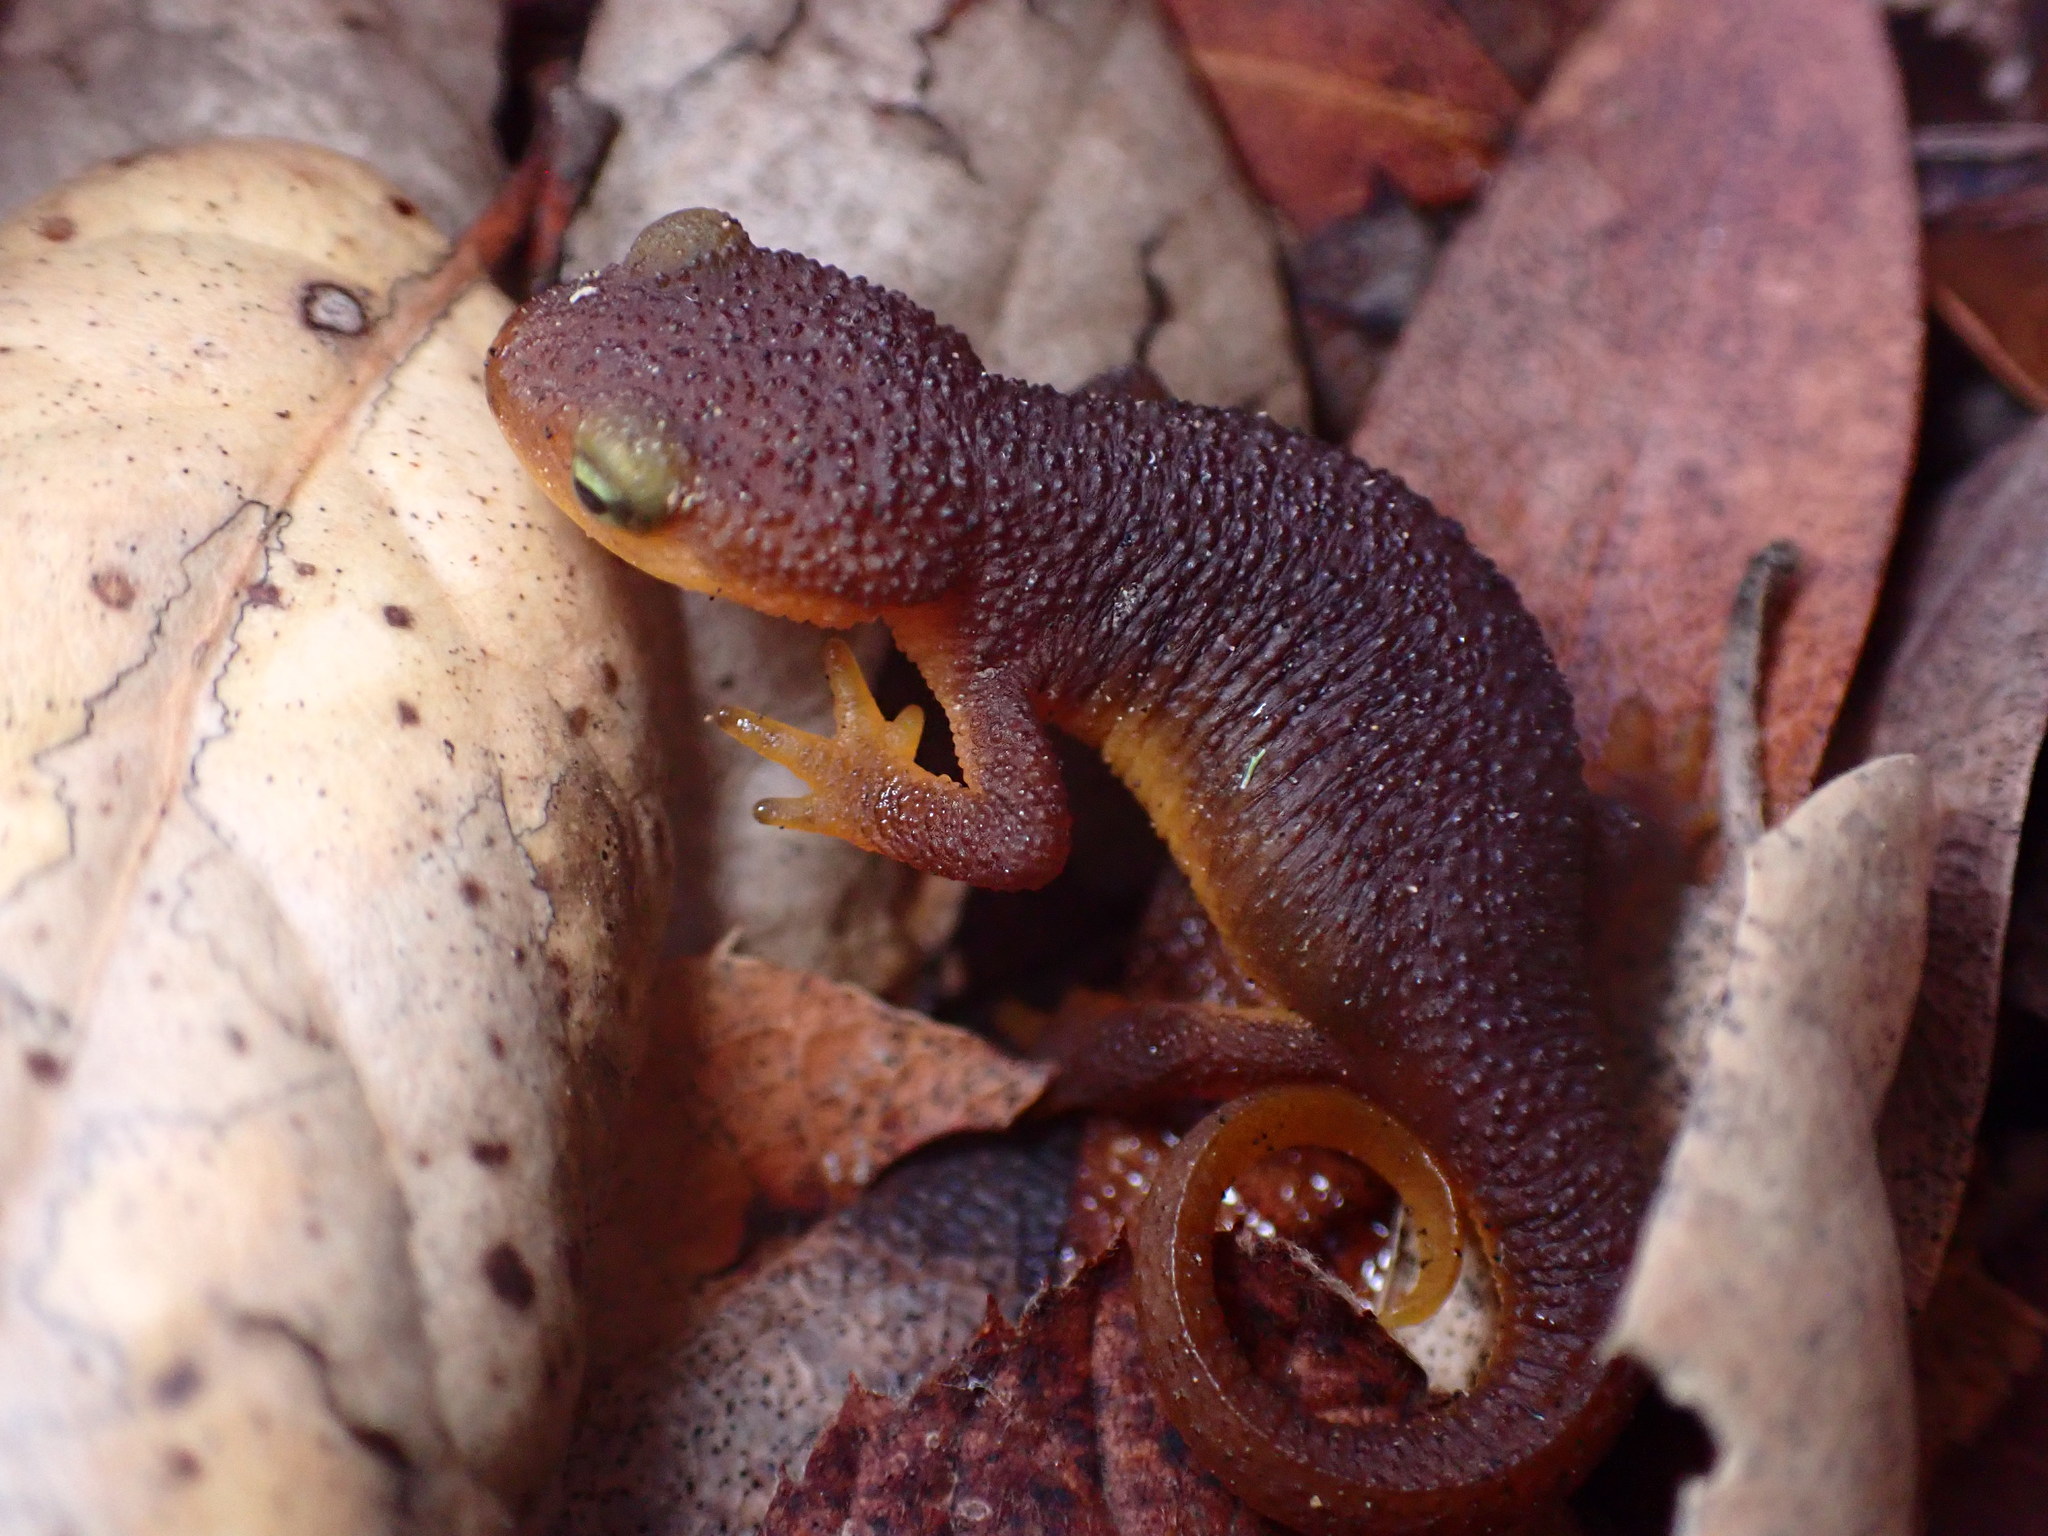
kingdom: Animalia
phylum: Chordata
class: Amphibia
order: Caudata
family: Salamandridae
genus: Taricha
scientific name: Taricha torosa
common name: California newt
